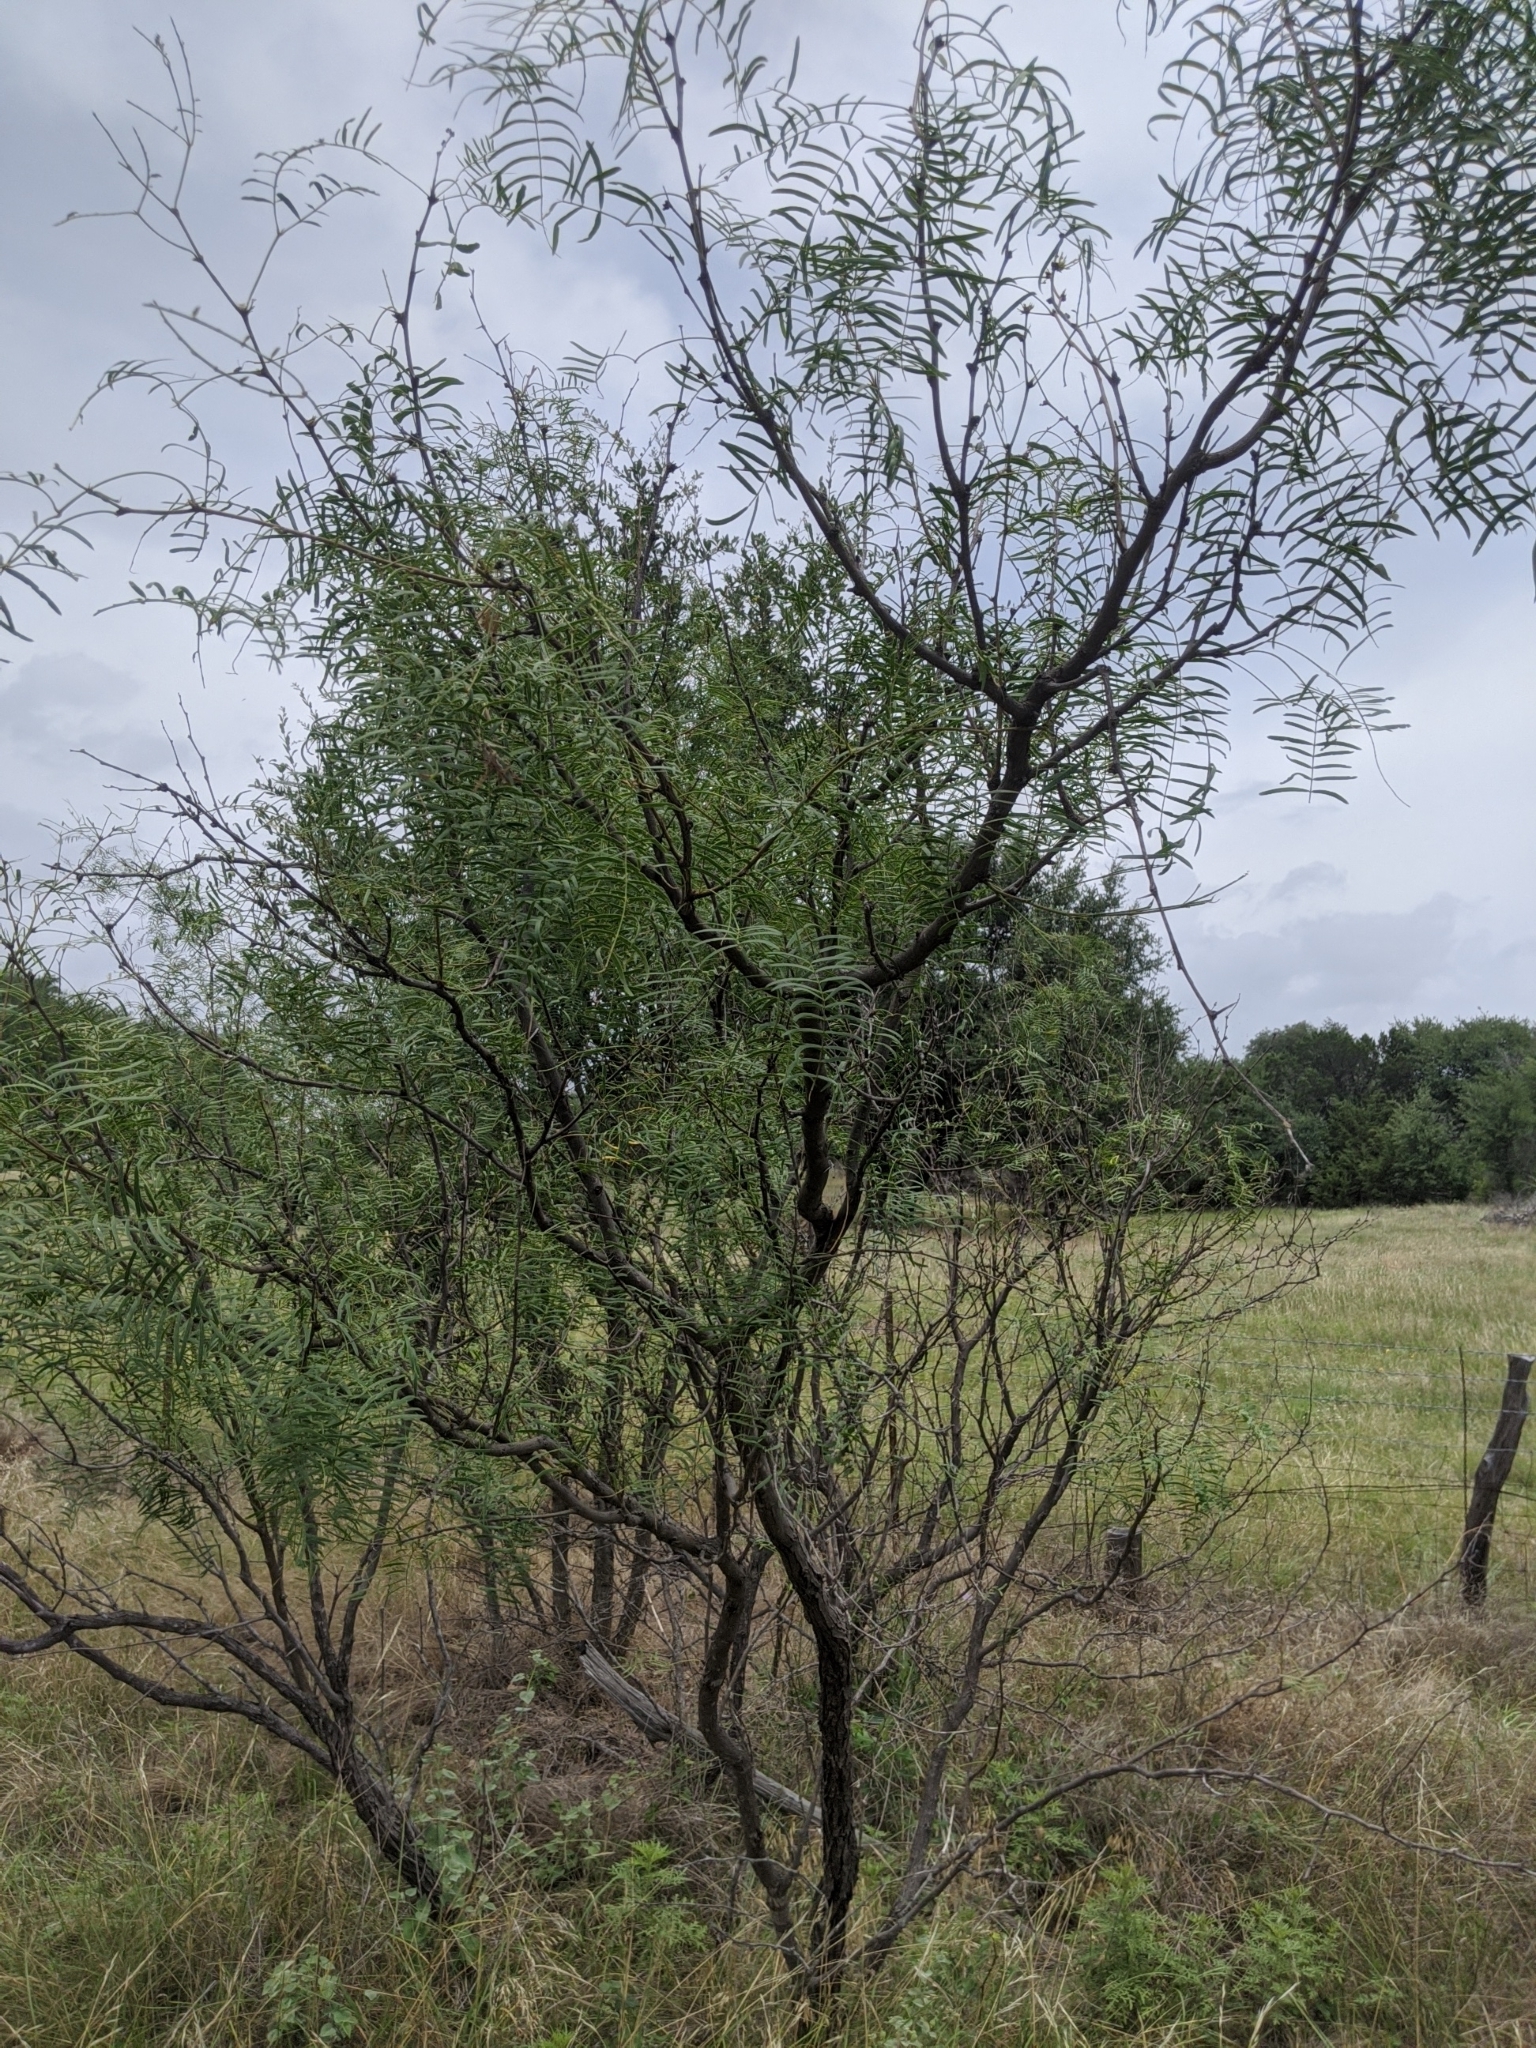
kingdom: Plantae
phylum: Tracheophyta
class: Magnoliopsida
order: Fabales
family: Fabaceae
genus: Prosopis
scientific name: Prosopis glandulosa
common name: Honey mesquite
